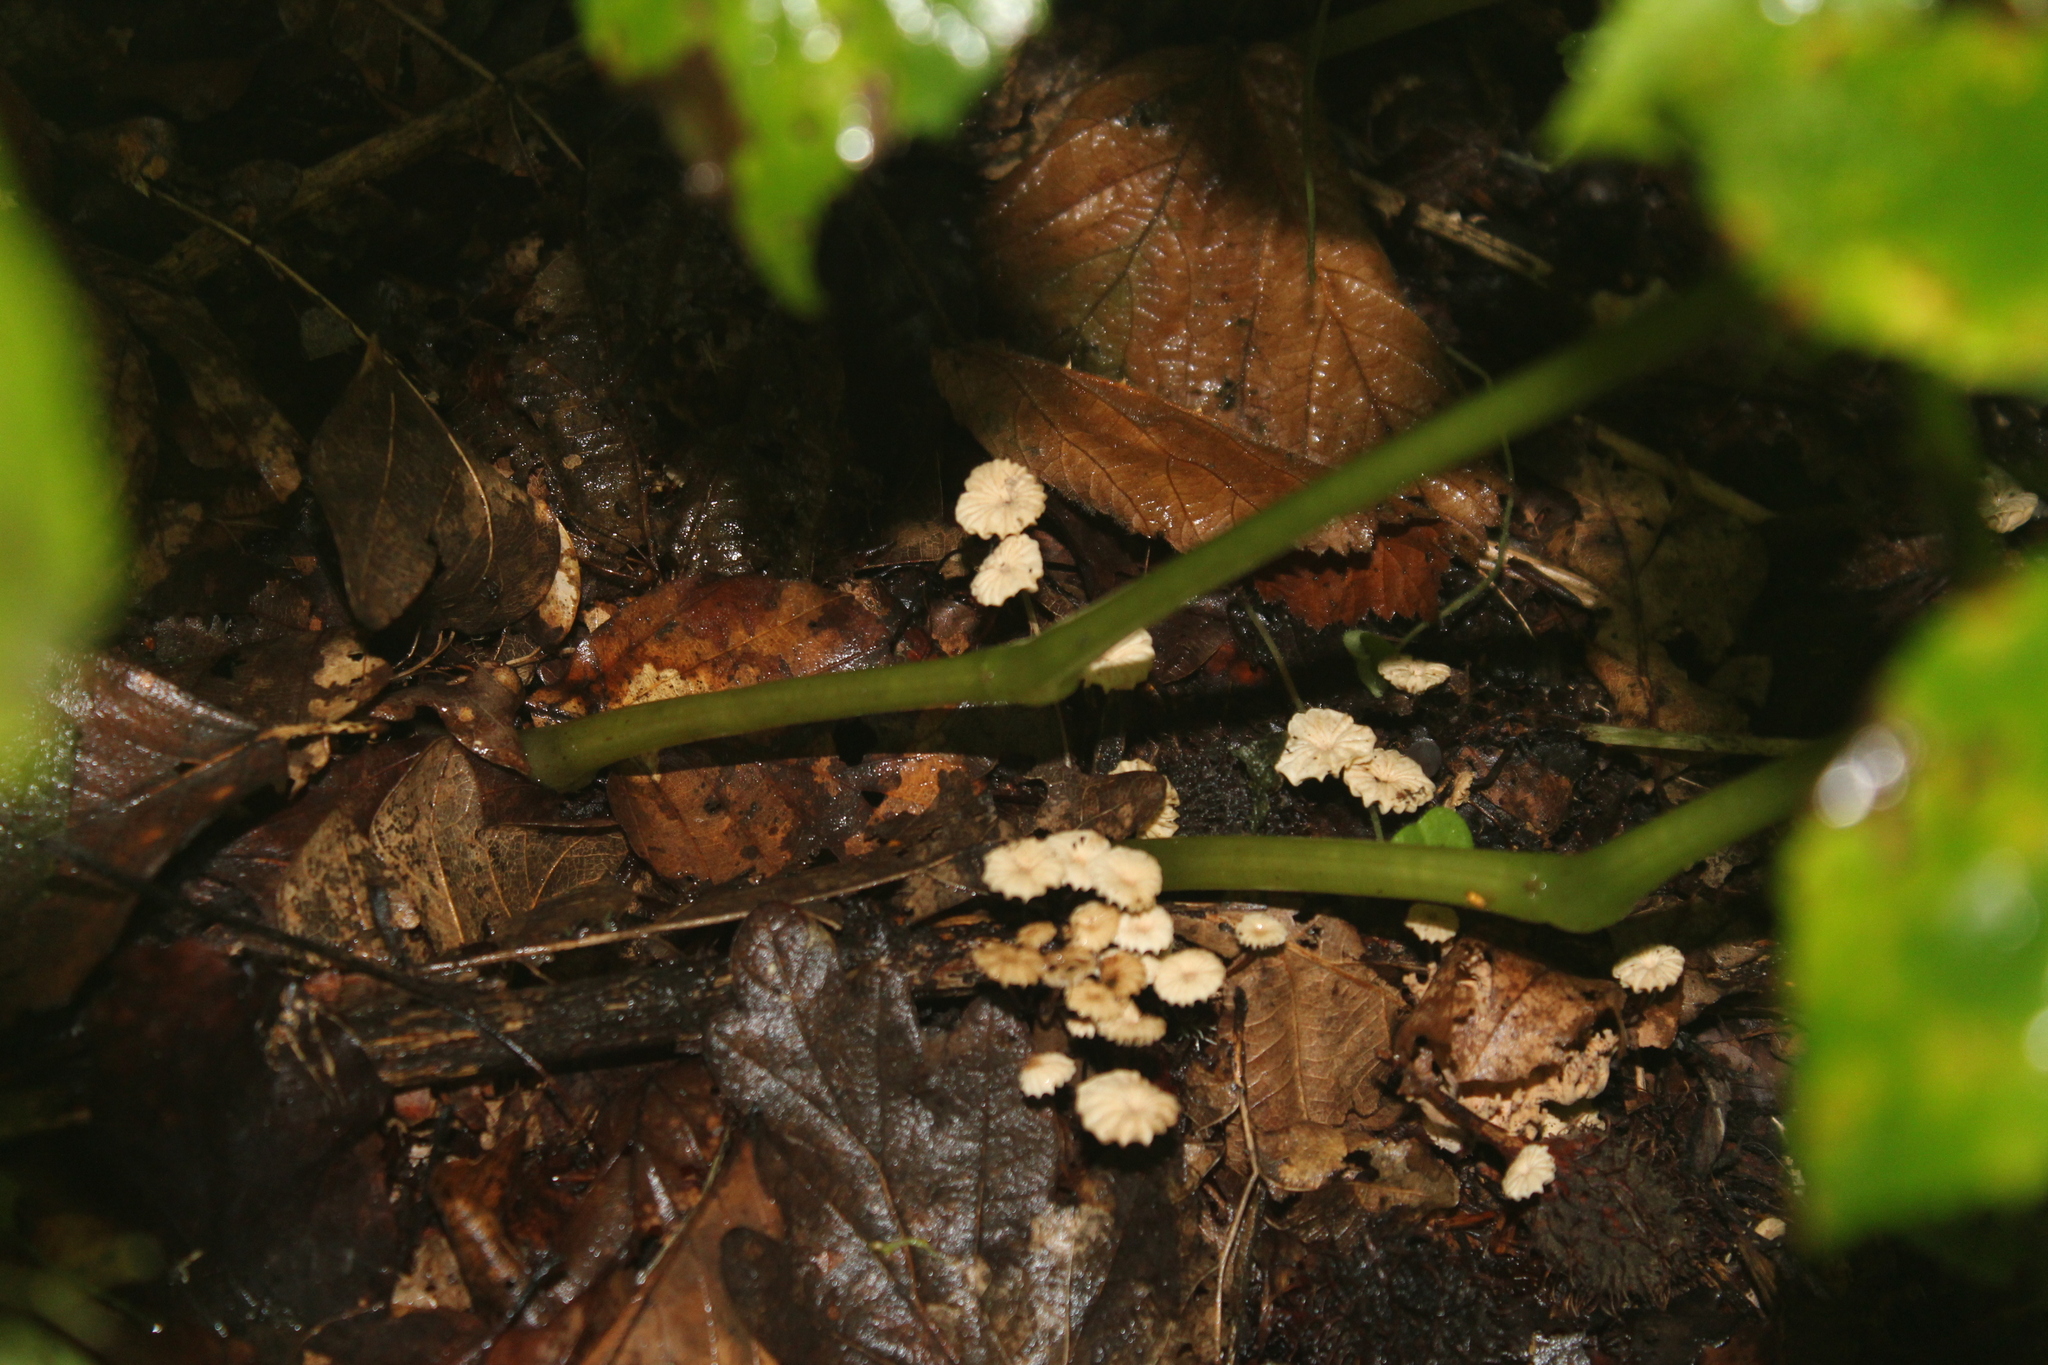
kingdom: Fungi
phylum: Basidiomycota
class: Agaricomycetes
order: Agaricales
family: Marasmiaceae
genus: Marasmius
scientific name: Marasmius rotula
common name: Collared parachute
